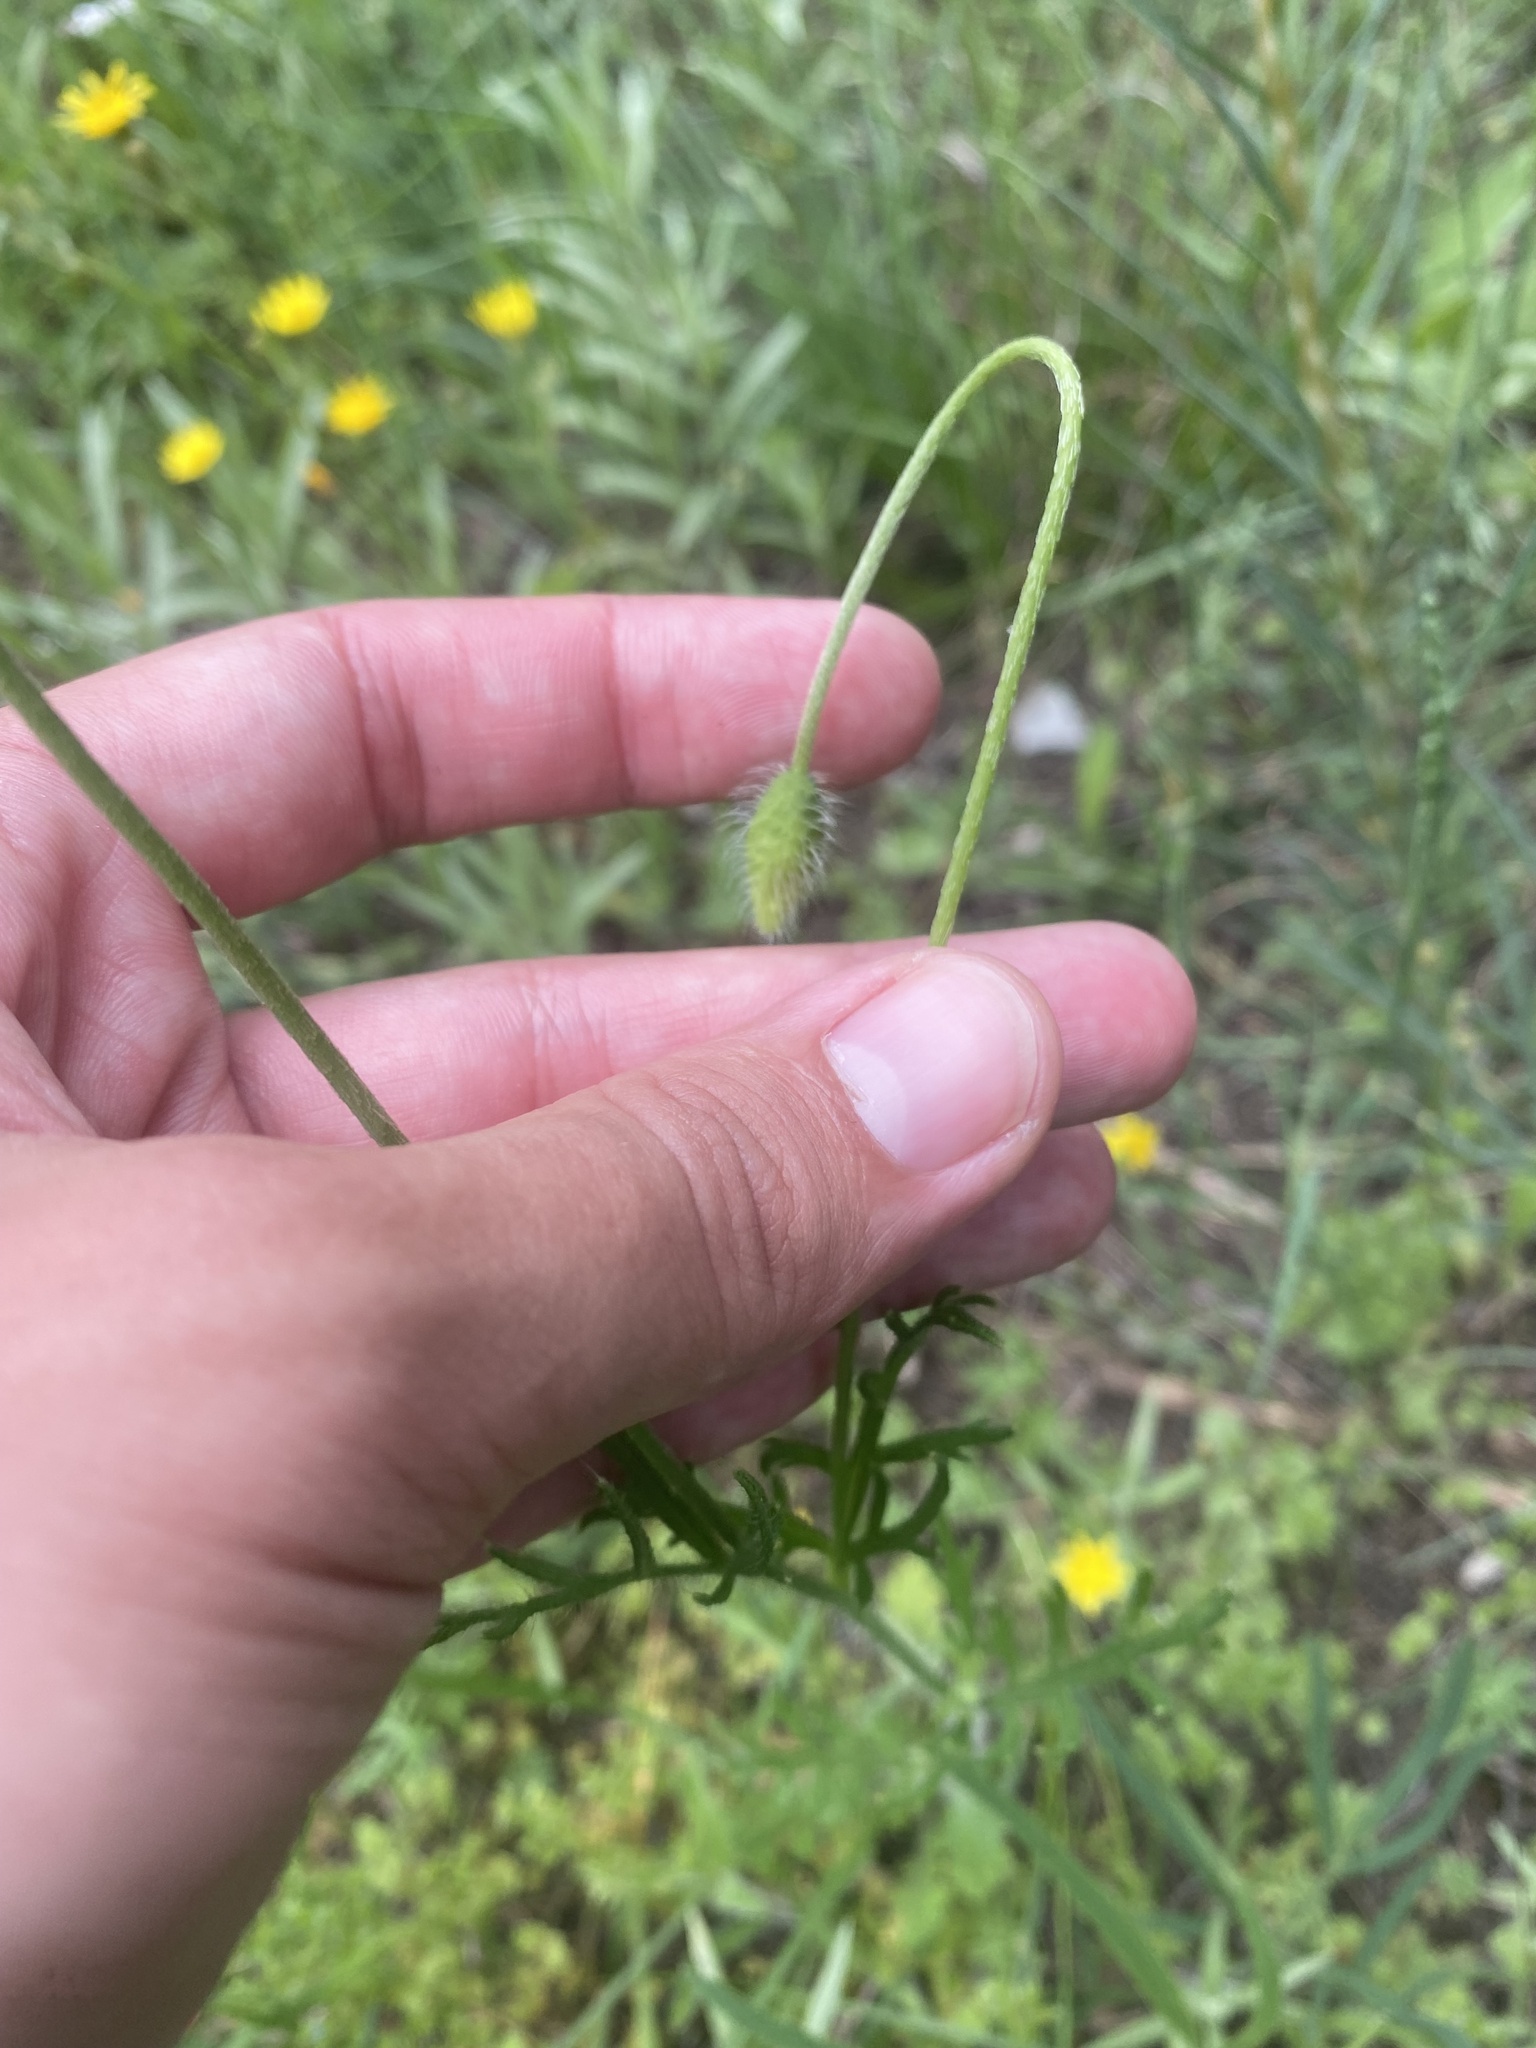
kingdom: Plantae
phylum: Tracheophyta
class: Magnoliopsida
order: Ranunculales
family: Papaveraceae
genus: Papaver
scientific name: Papaver dubium
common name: Long-headed poppy
